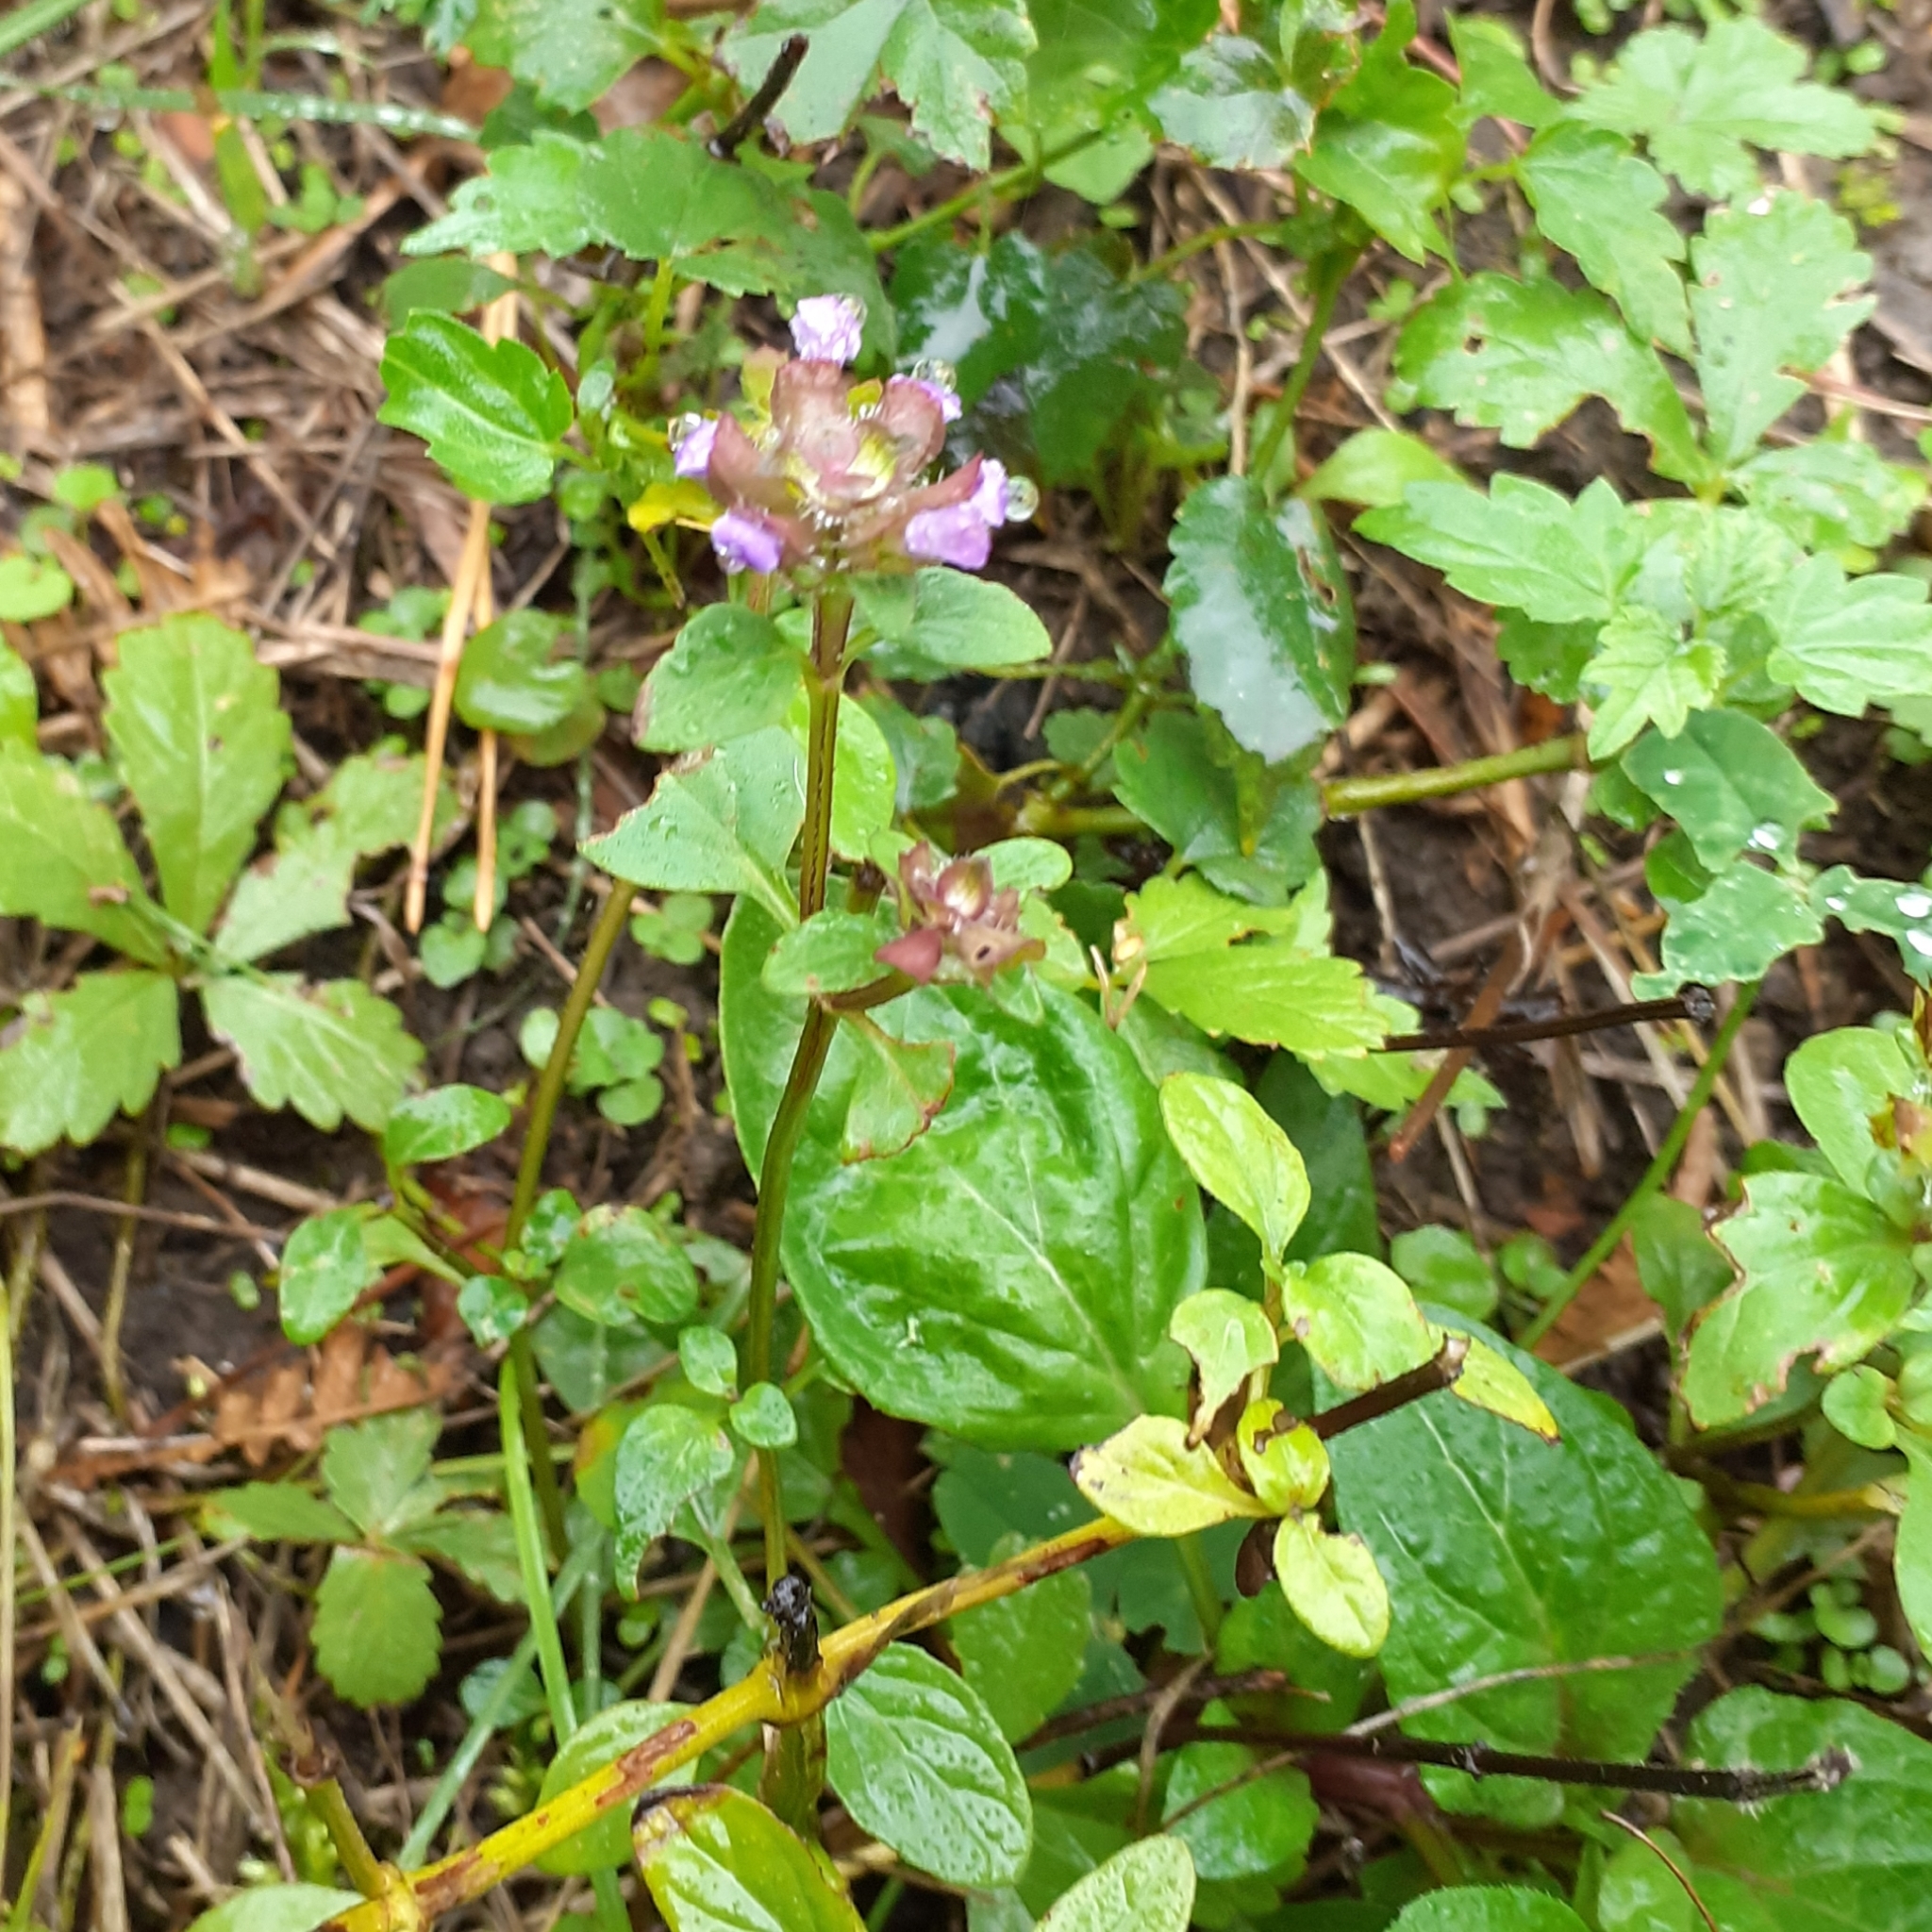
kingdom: Plantae
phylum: Tracheophyta
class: Magnoliopsida
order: Lamiales
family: Lamiaceae
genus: Prunella
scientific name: Prunella vulgaris
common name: Heal-all
